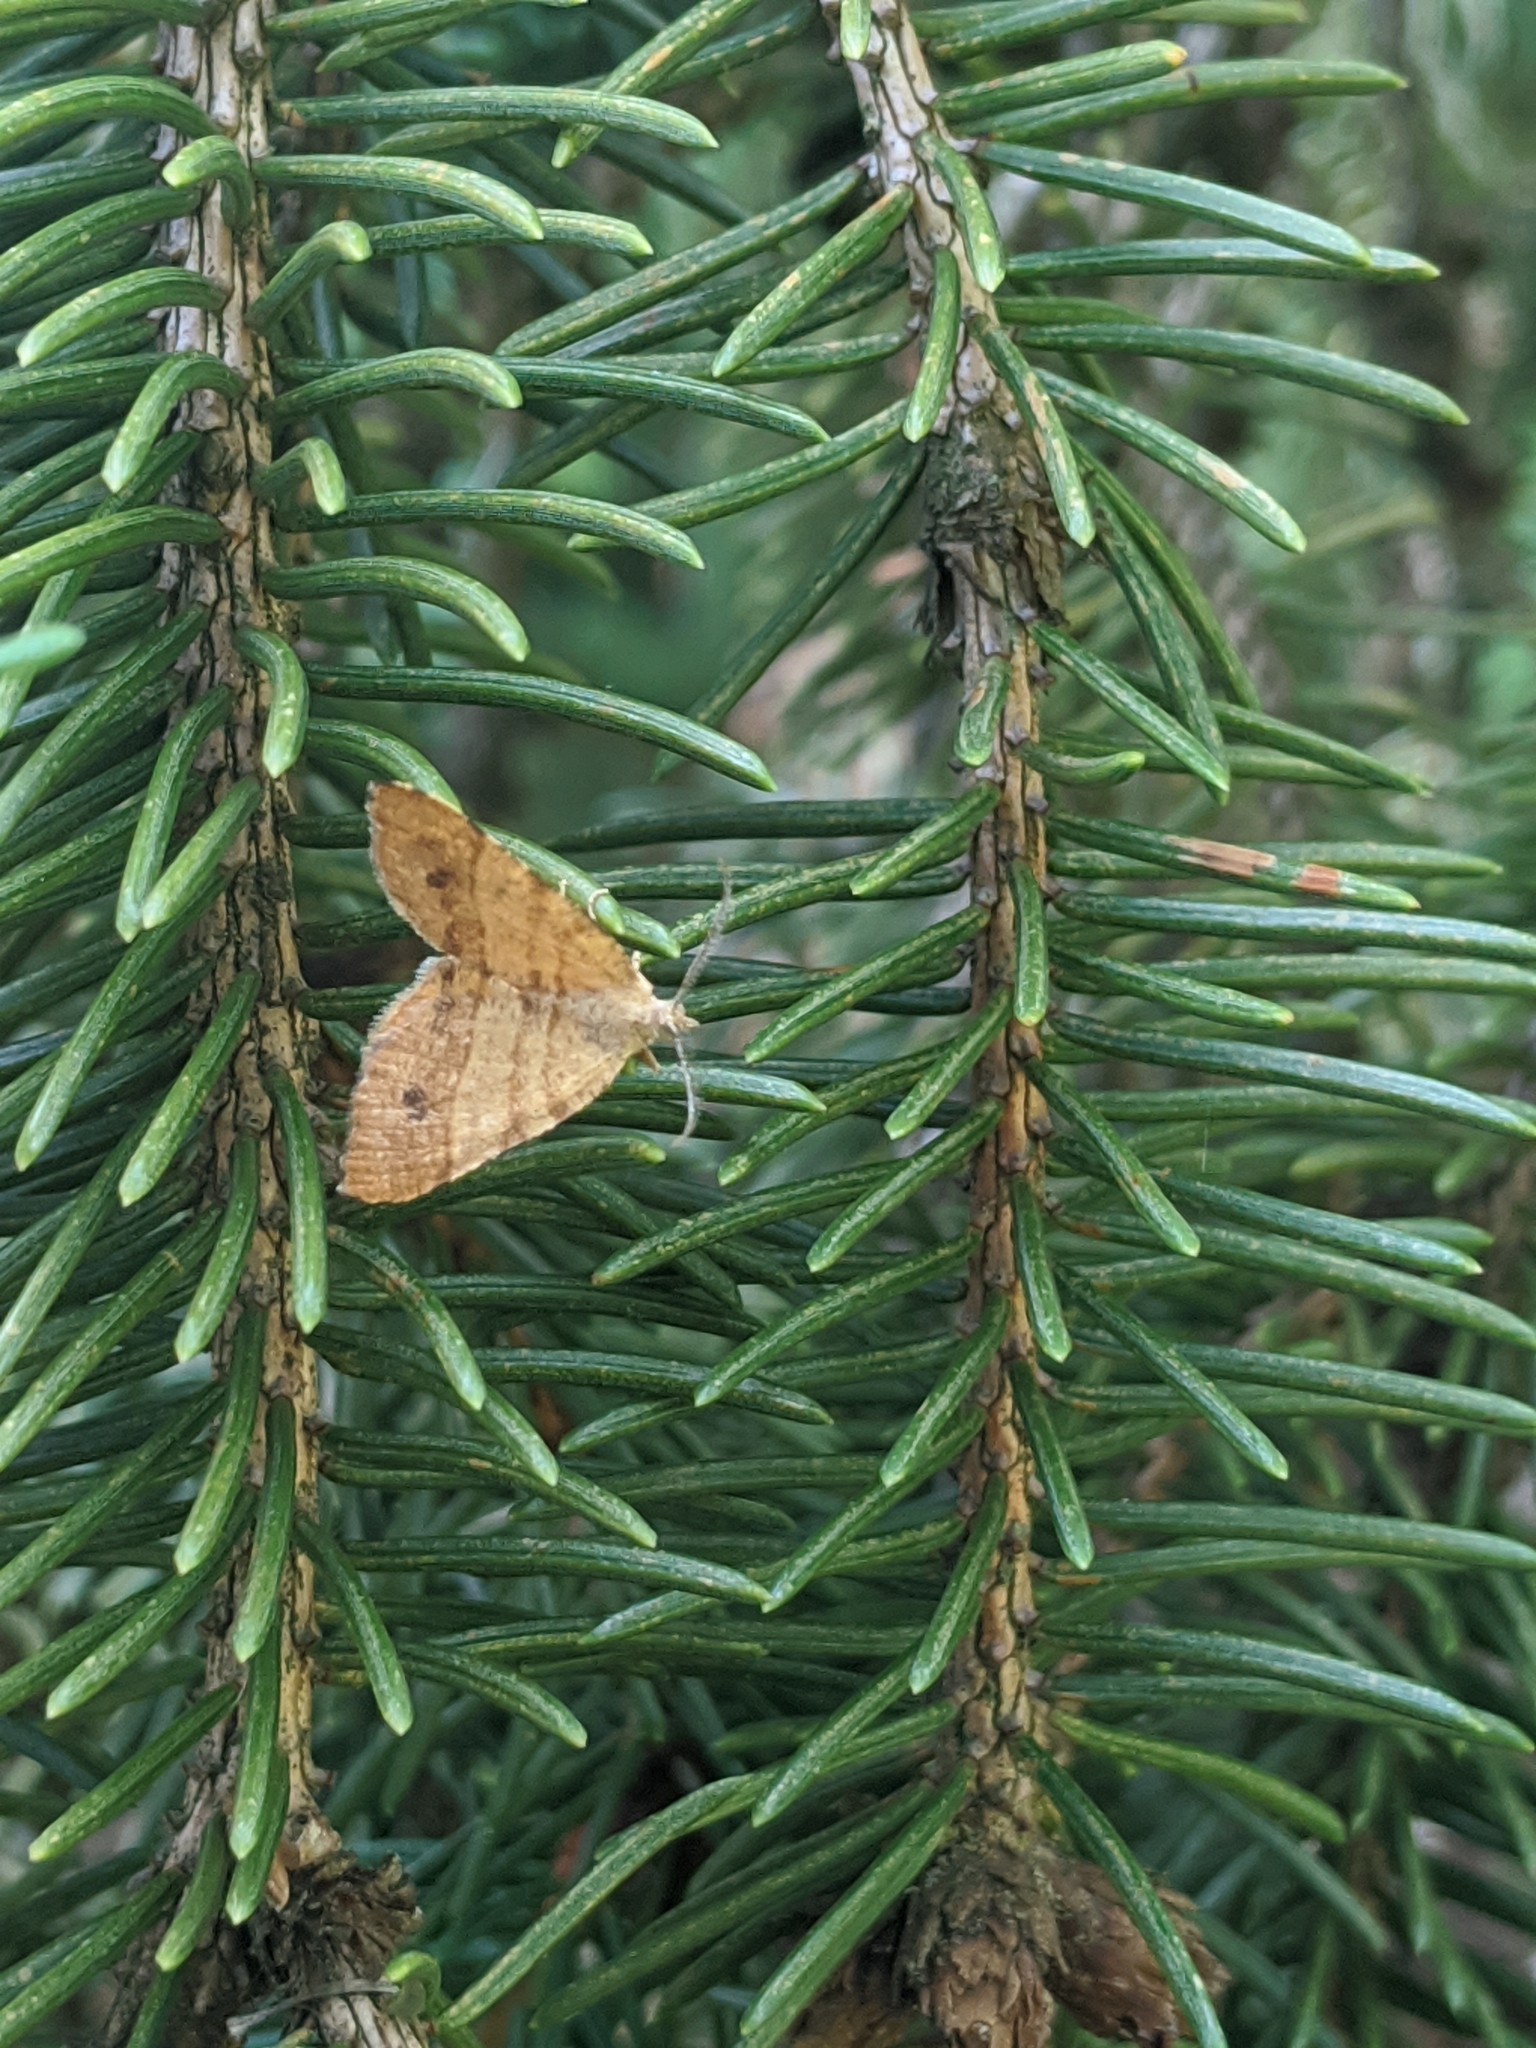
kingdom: Animalia
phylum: Arthropoda
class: Insecta
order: Lepidoptera
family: Geometridae
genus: Mellilla
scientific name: Mellilla xanthometata
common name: Orange wing moth
